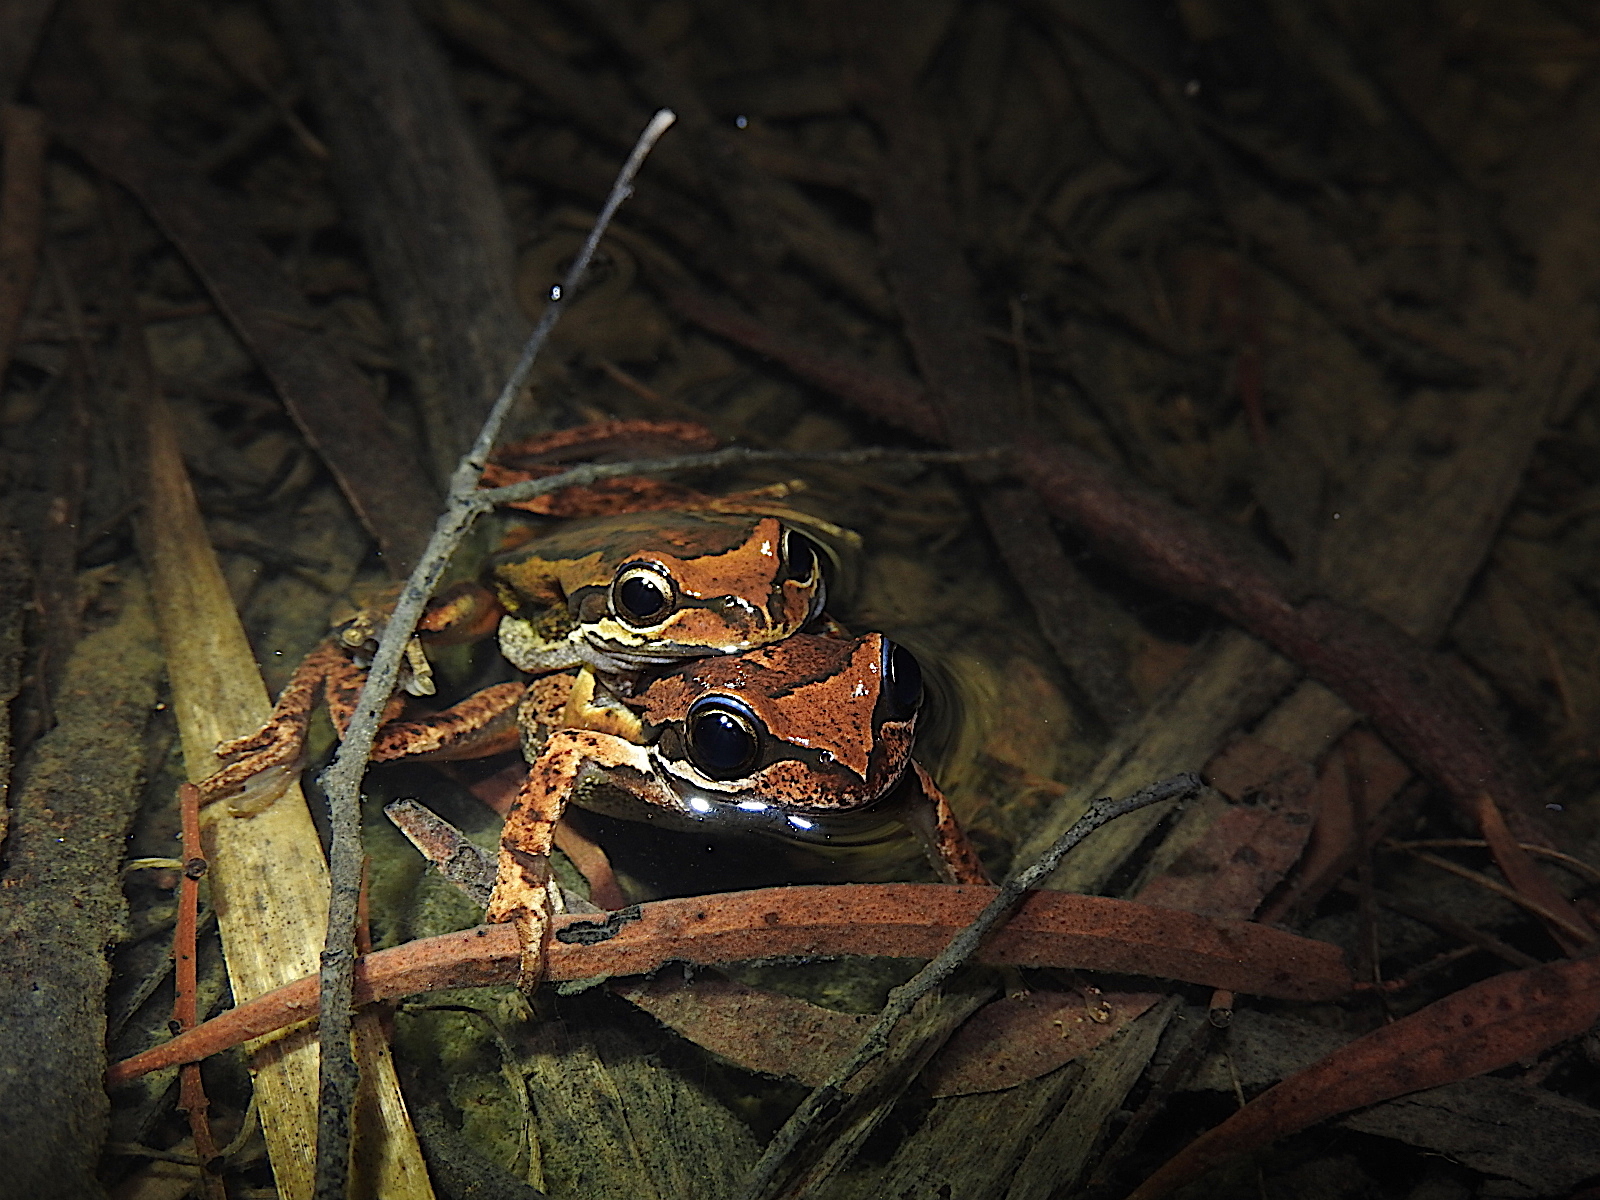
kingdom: Animalia
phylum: Chordata
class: Amphibia
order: Anura
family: Pelodryadidae
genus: Litoria
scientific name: Litoria ewingii
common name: Southern brown tree frog
